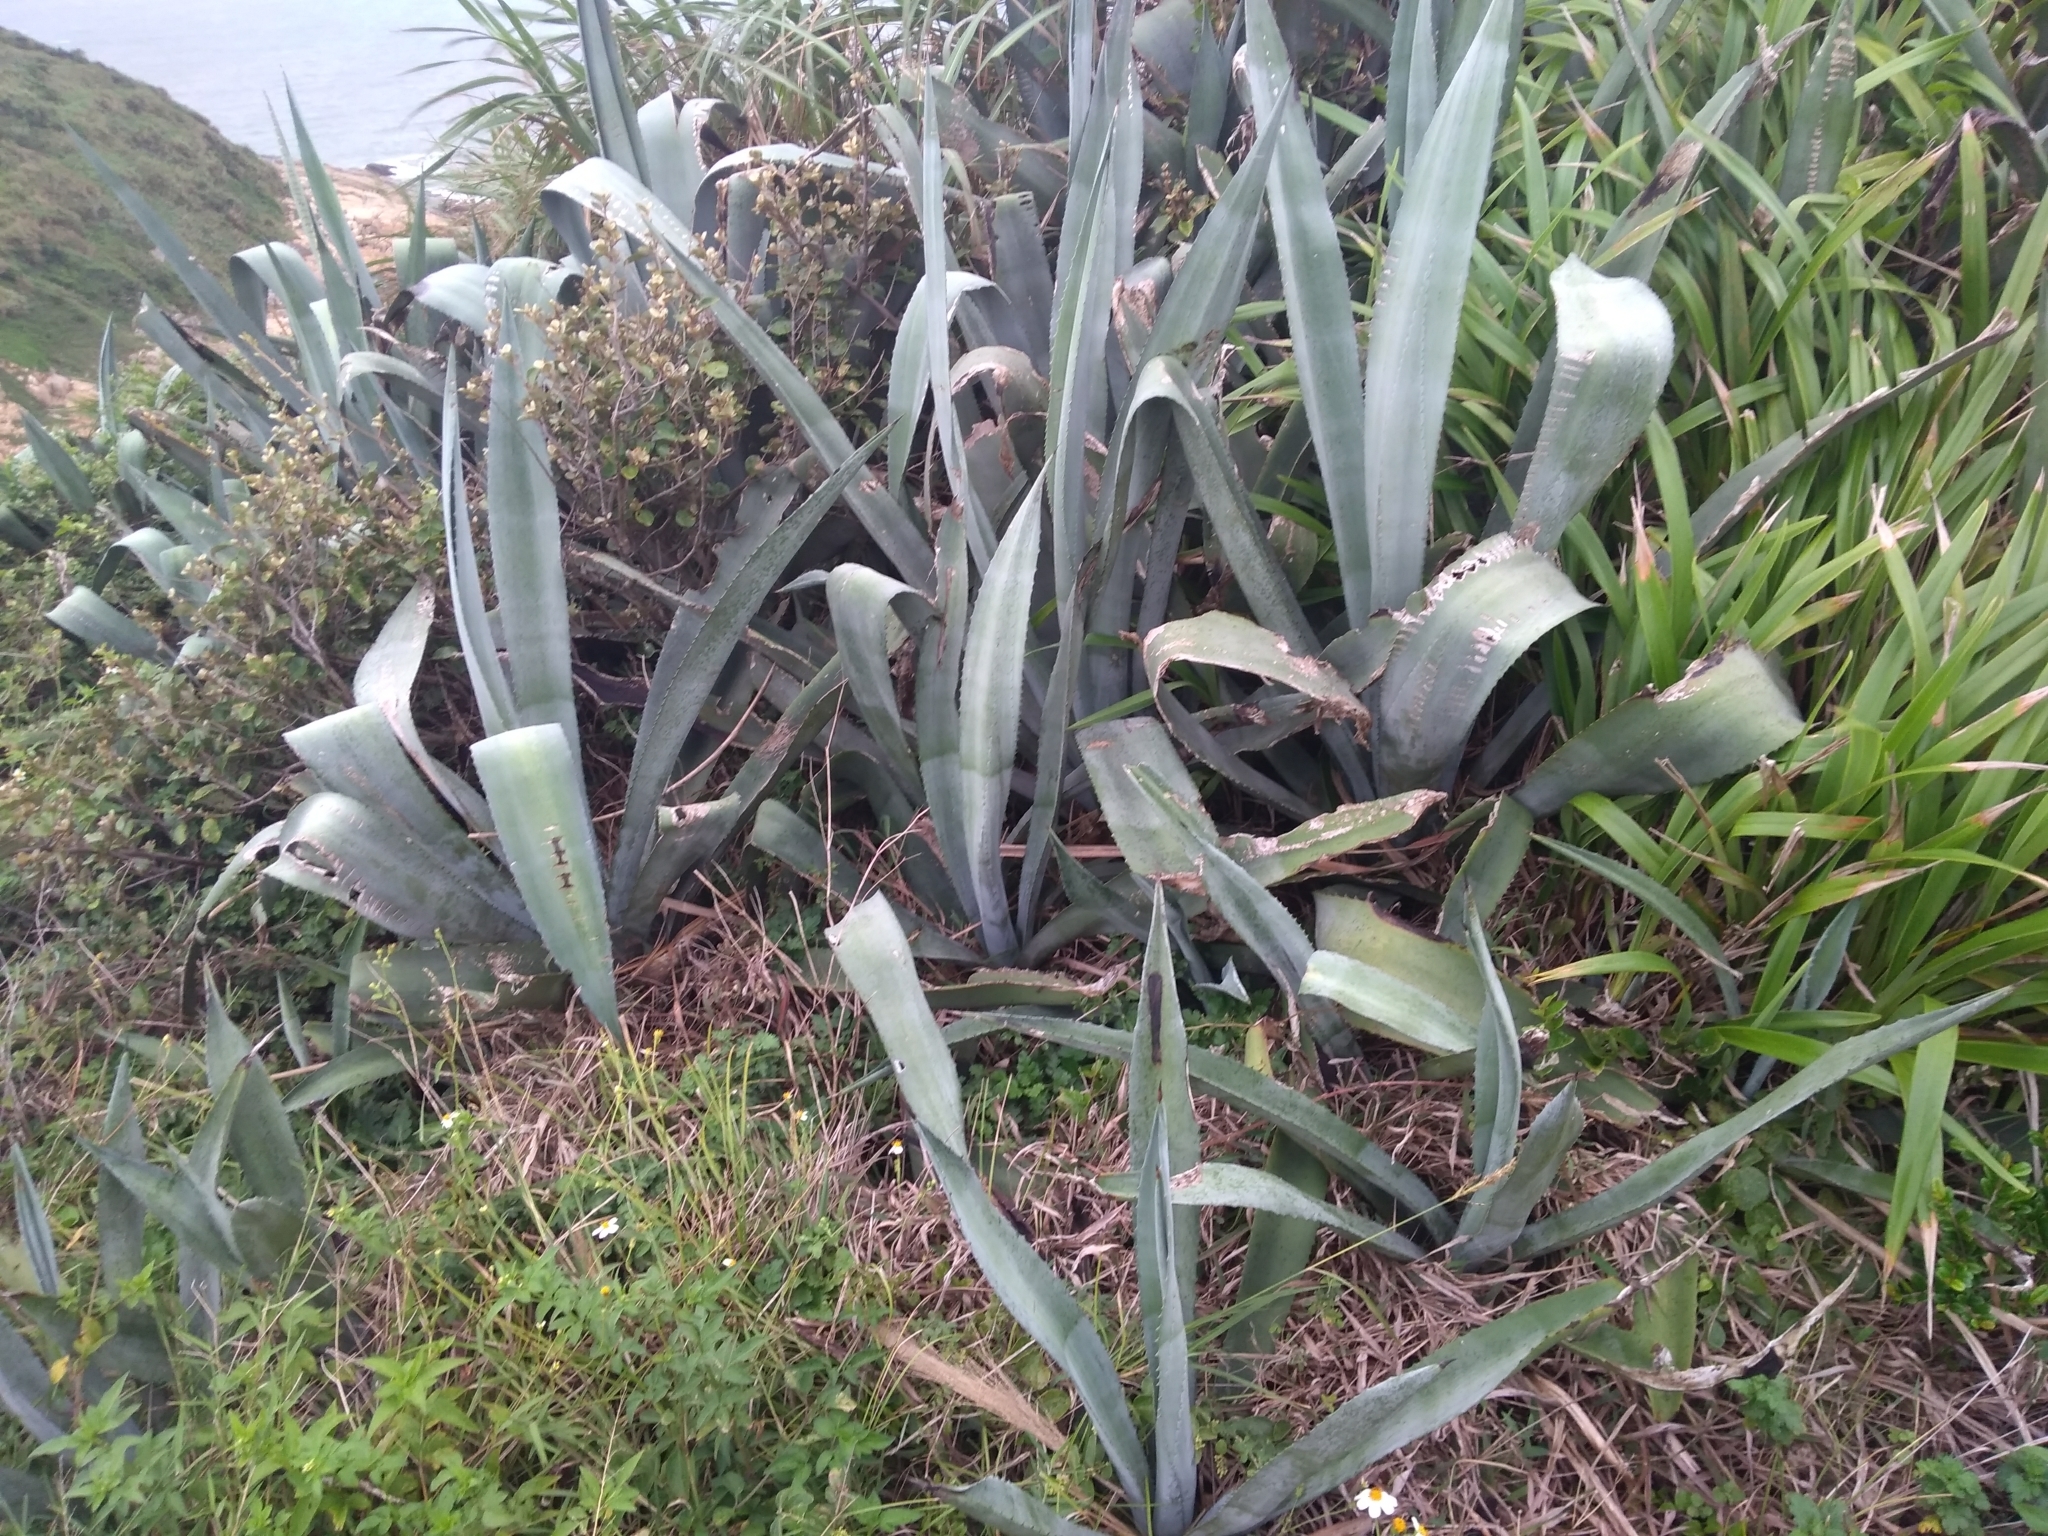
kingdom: Plantae
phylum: Tracheophyta
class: Liliopsida
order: Asparagales
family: Asparagaceae
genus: Agave
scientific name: Agave americana
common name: Centuryplant
